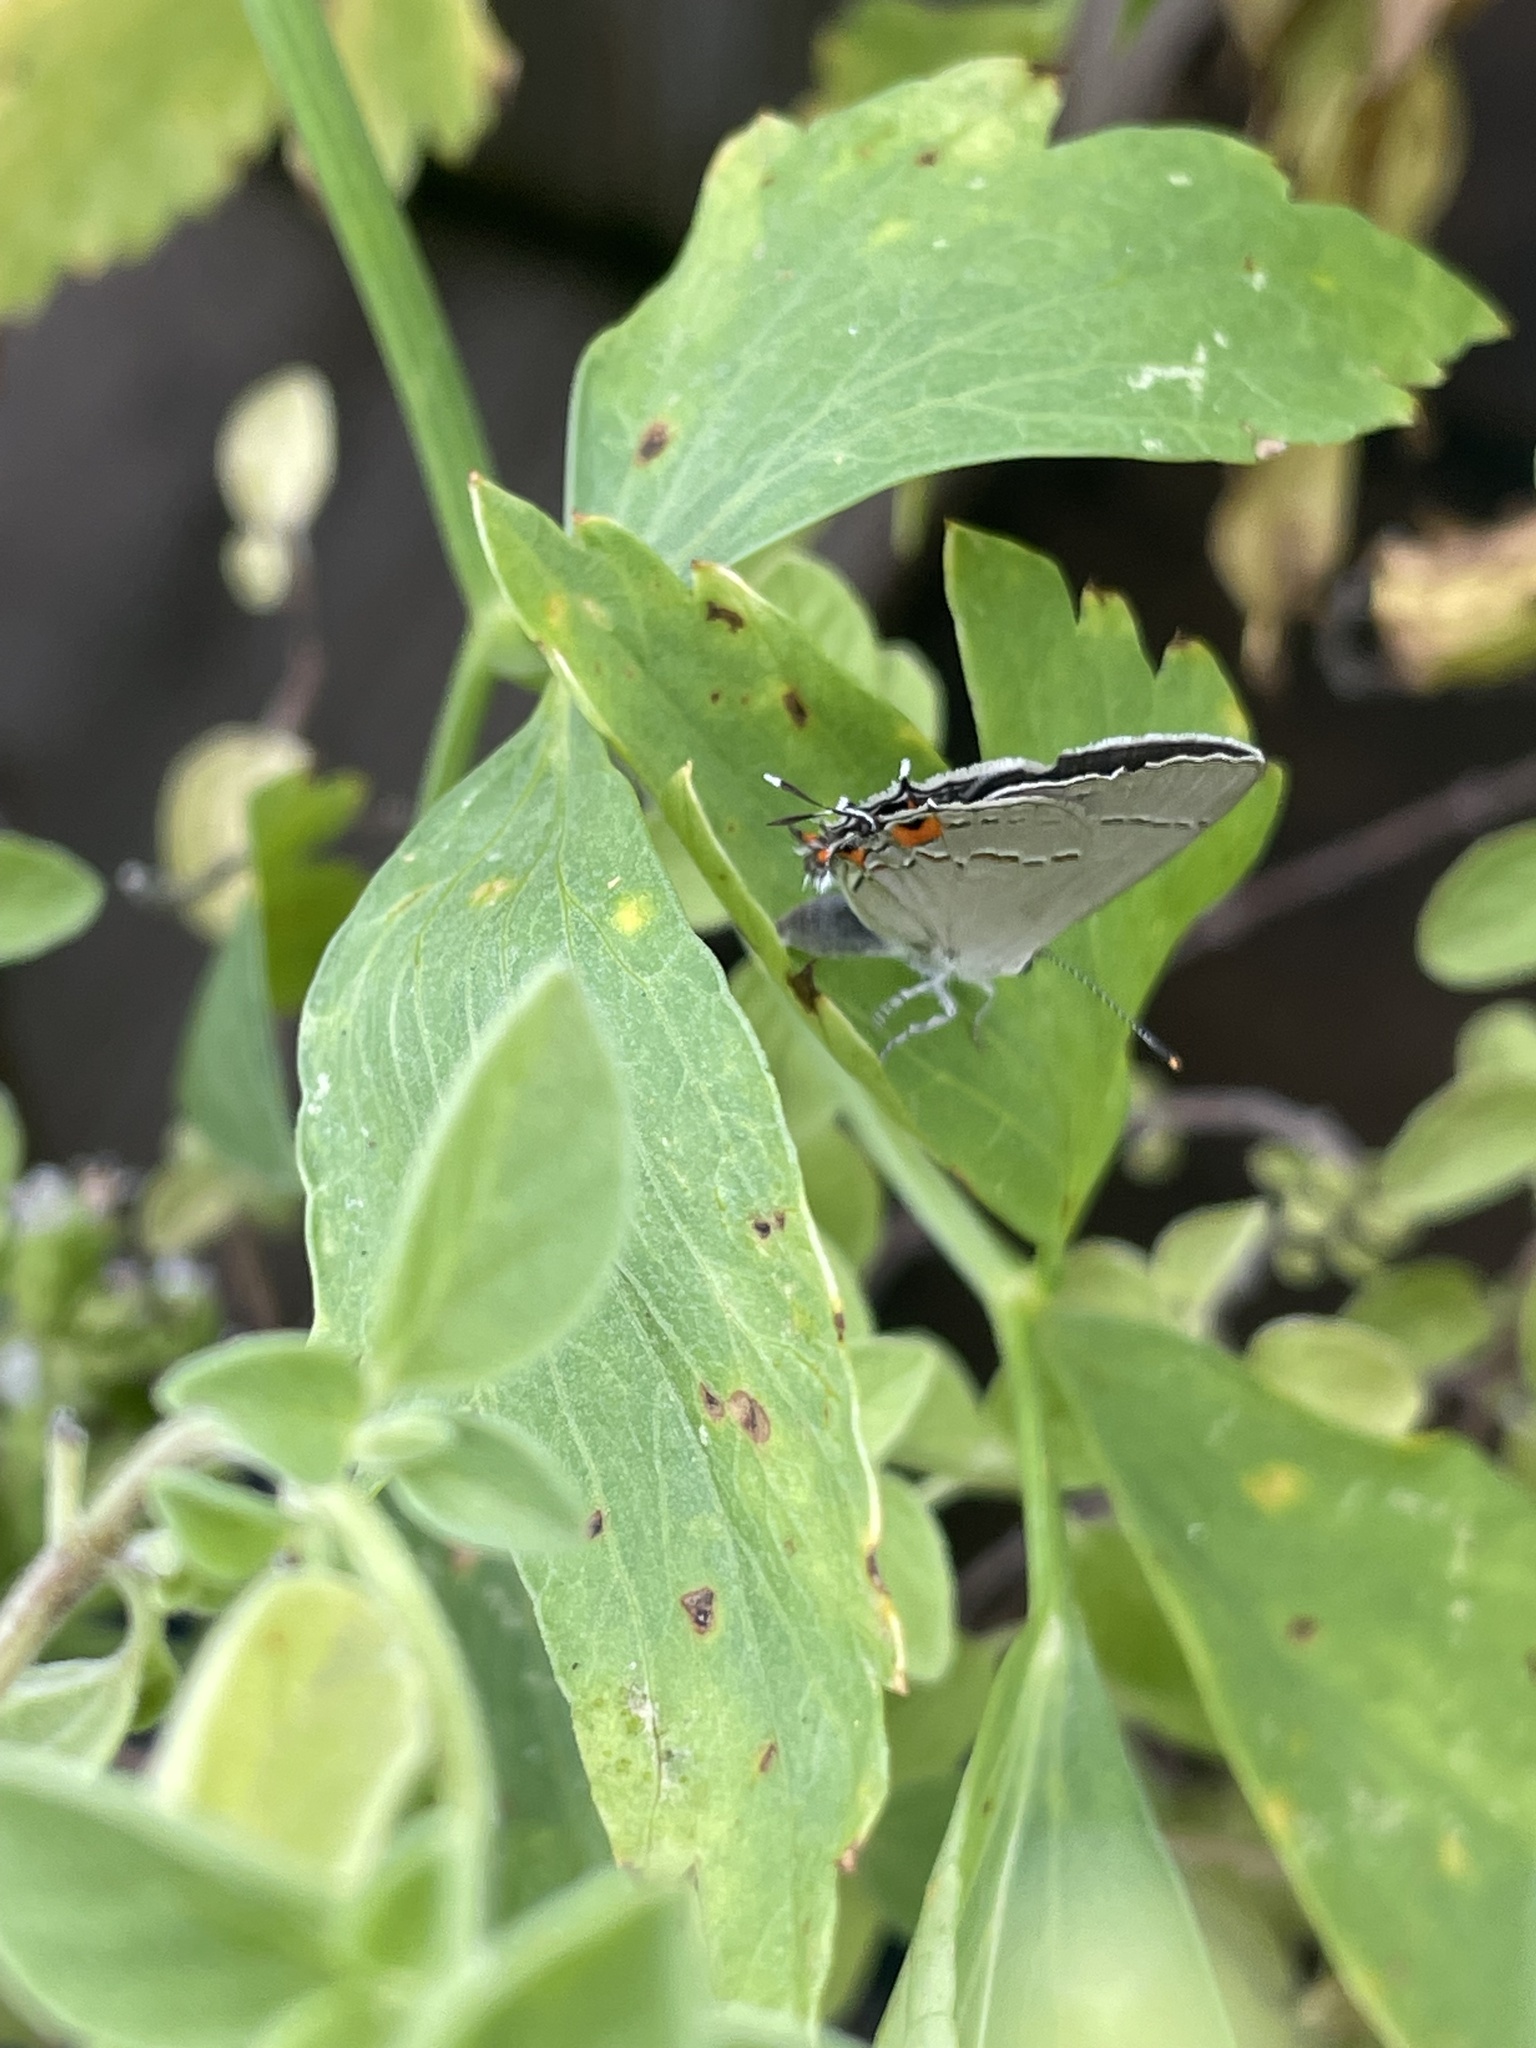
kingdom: Animalia
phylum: Arthropoda
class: Insecta
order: Lepidoptera
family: Lycaenidae
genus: Strymon
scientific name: Strymon melinus
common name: Gray hairstreak
